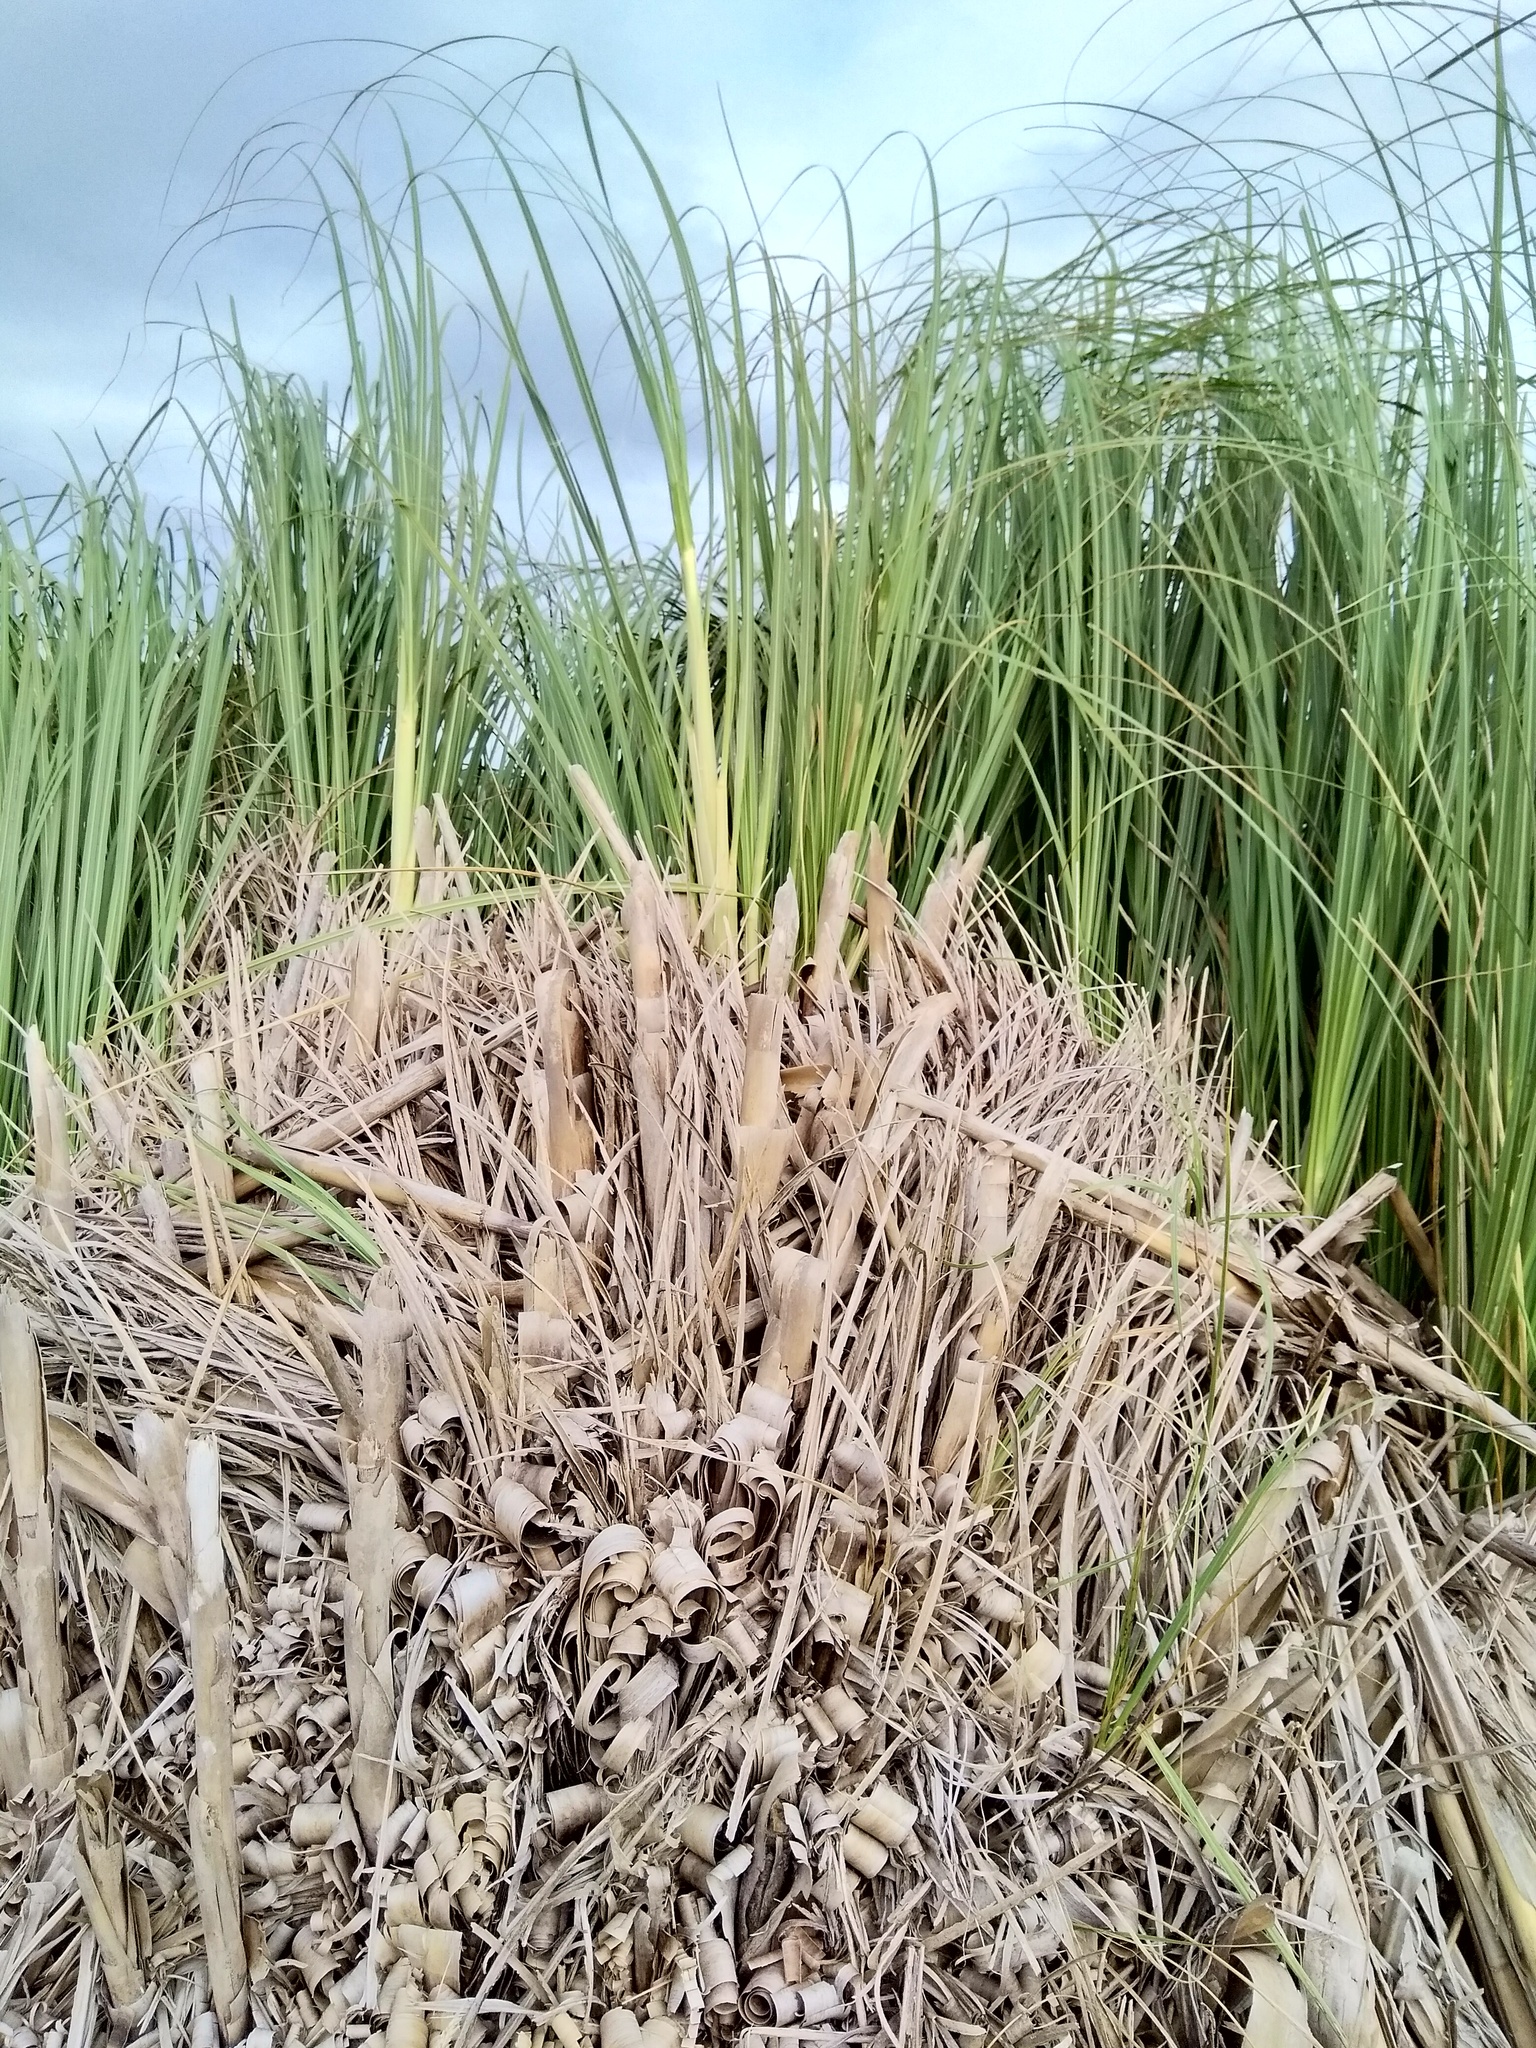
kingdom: Plantae
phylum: Tracheophyta
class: Liliopsida
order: Poales
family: Poaceae
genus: Cortaderia
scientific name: Cortaderia selloana
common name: Uruguayan pampas grass
